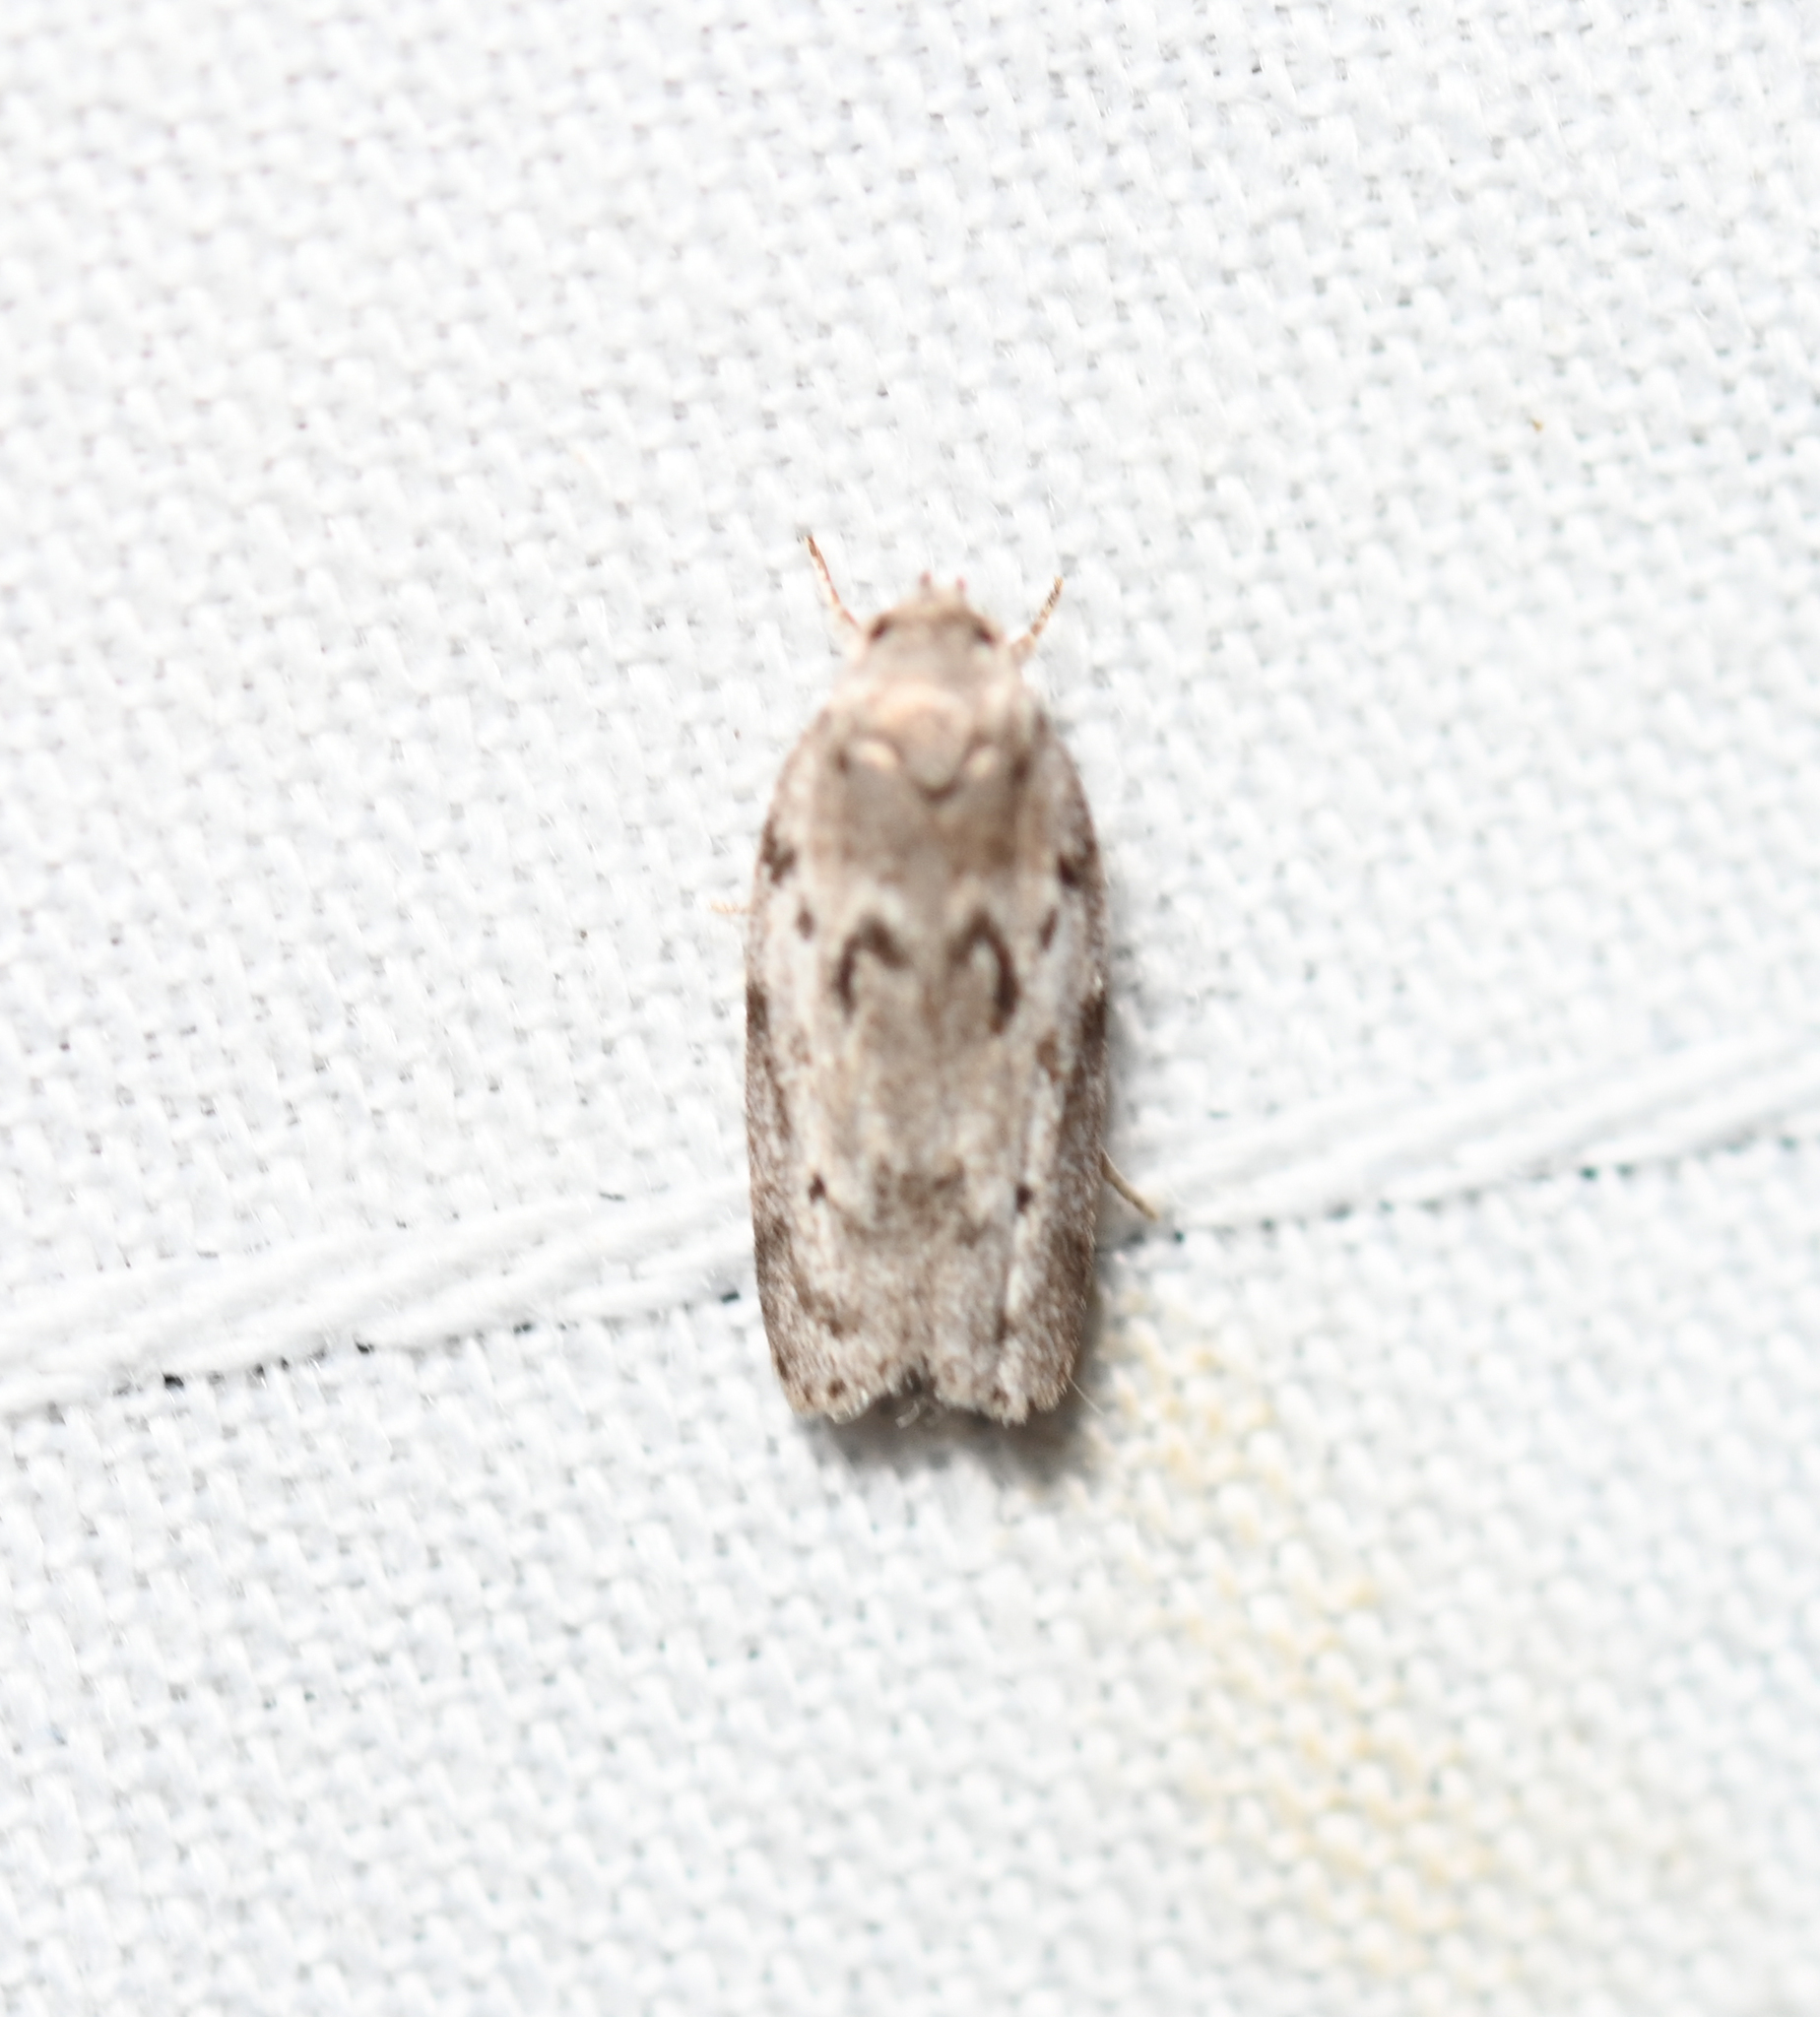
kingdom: Animalia
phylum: Arthropoda
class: Insecta
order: Lepidoptera
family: Depressariidae
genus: Antaeotricha
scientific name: Antaeotricha humilis
